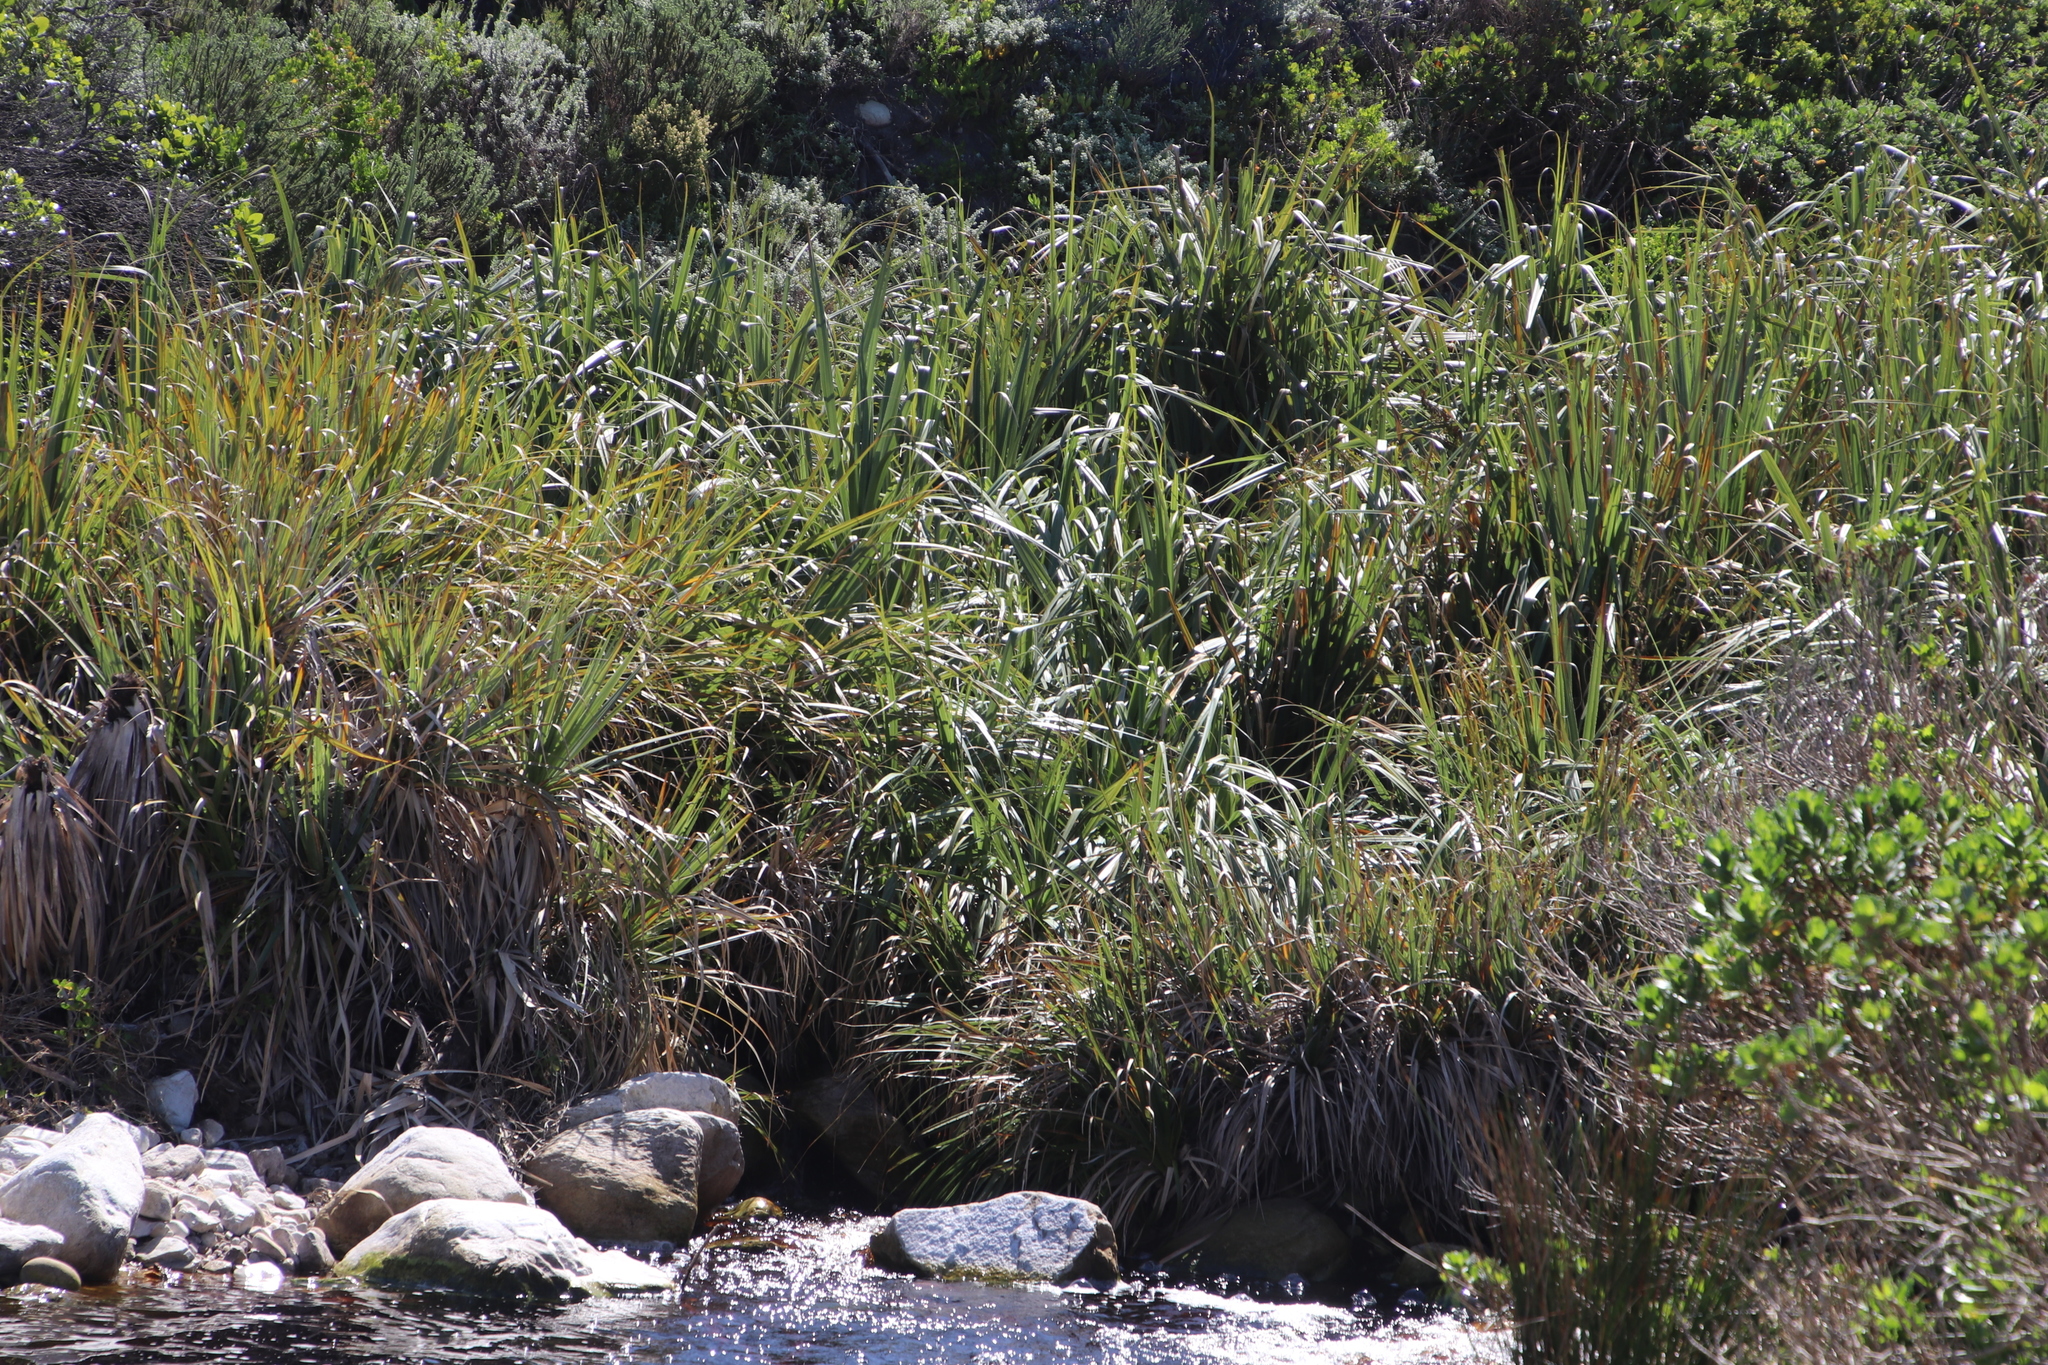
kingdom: Plantae
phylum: Tracheophyta
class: Liliopsida
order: Poales
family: Thurniaceae
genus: Prionium
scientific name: Prionium serratum
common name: Palmiet
